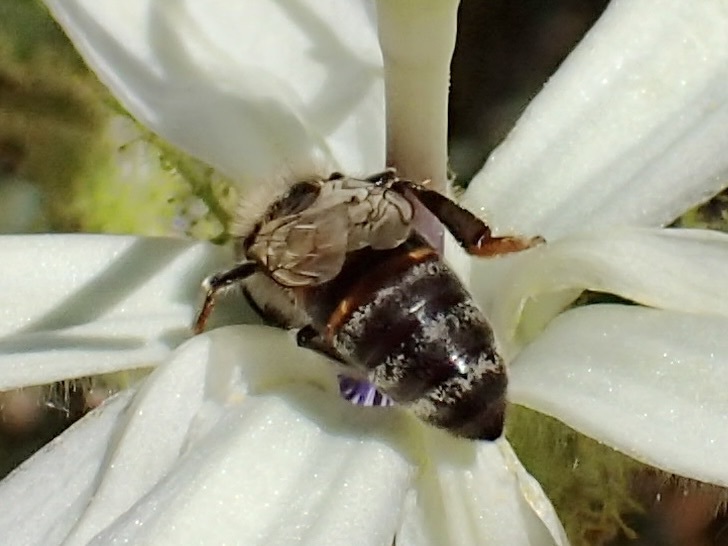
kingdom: Animalia
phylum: Arthropoda
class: Insecta
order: Hymenoptera
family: Apidae
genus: Apis
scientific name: Apis mellifera
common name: Honey bee
